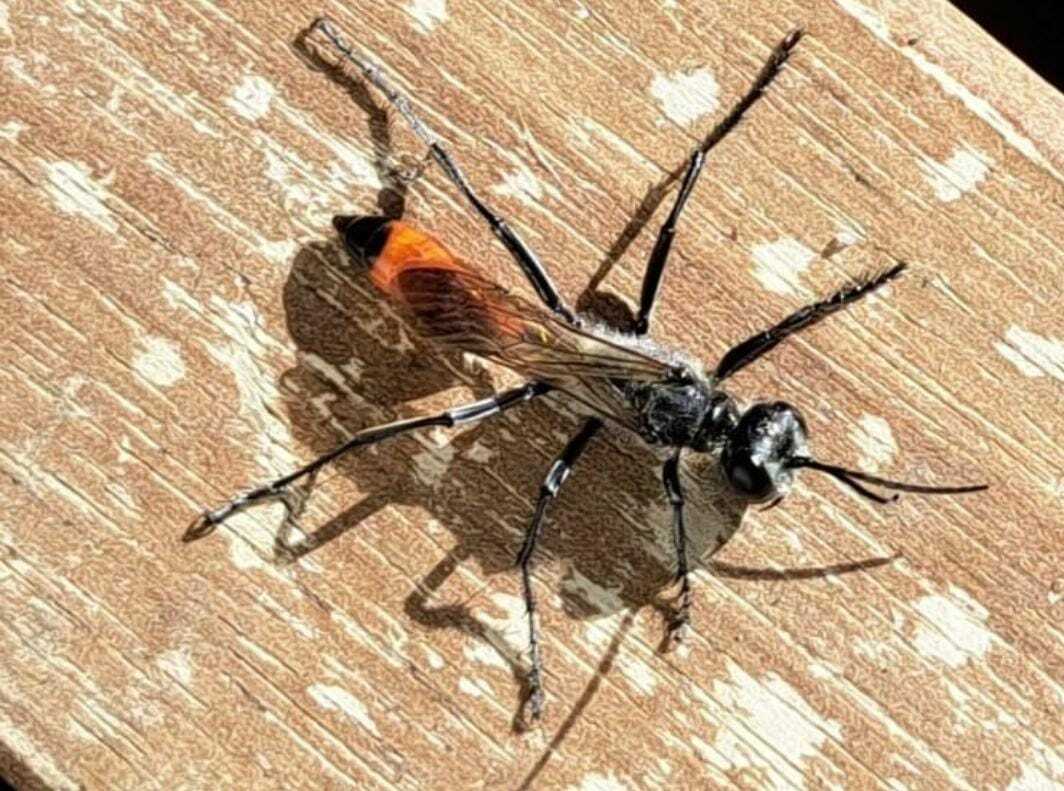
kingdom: Animalia
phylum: Arthropoda
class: Insecta
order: Hymenoptera
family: Sphecidae
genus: Podalonia
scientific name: Podalonia tydei
